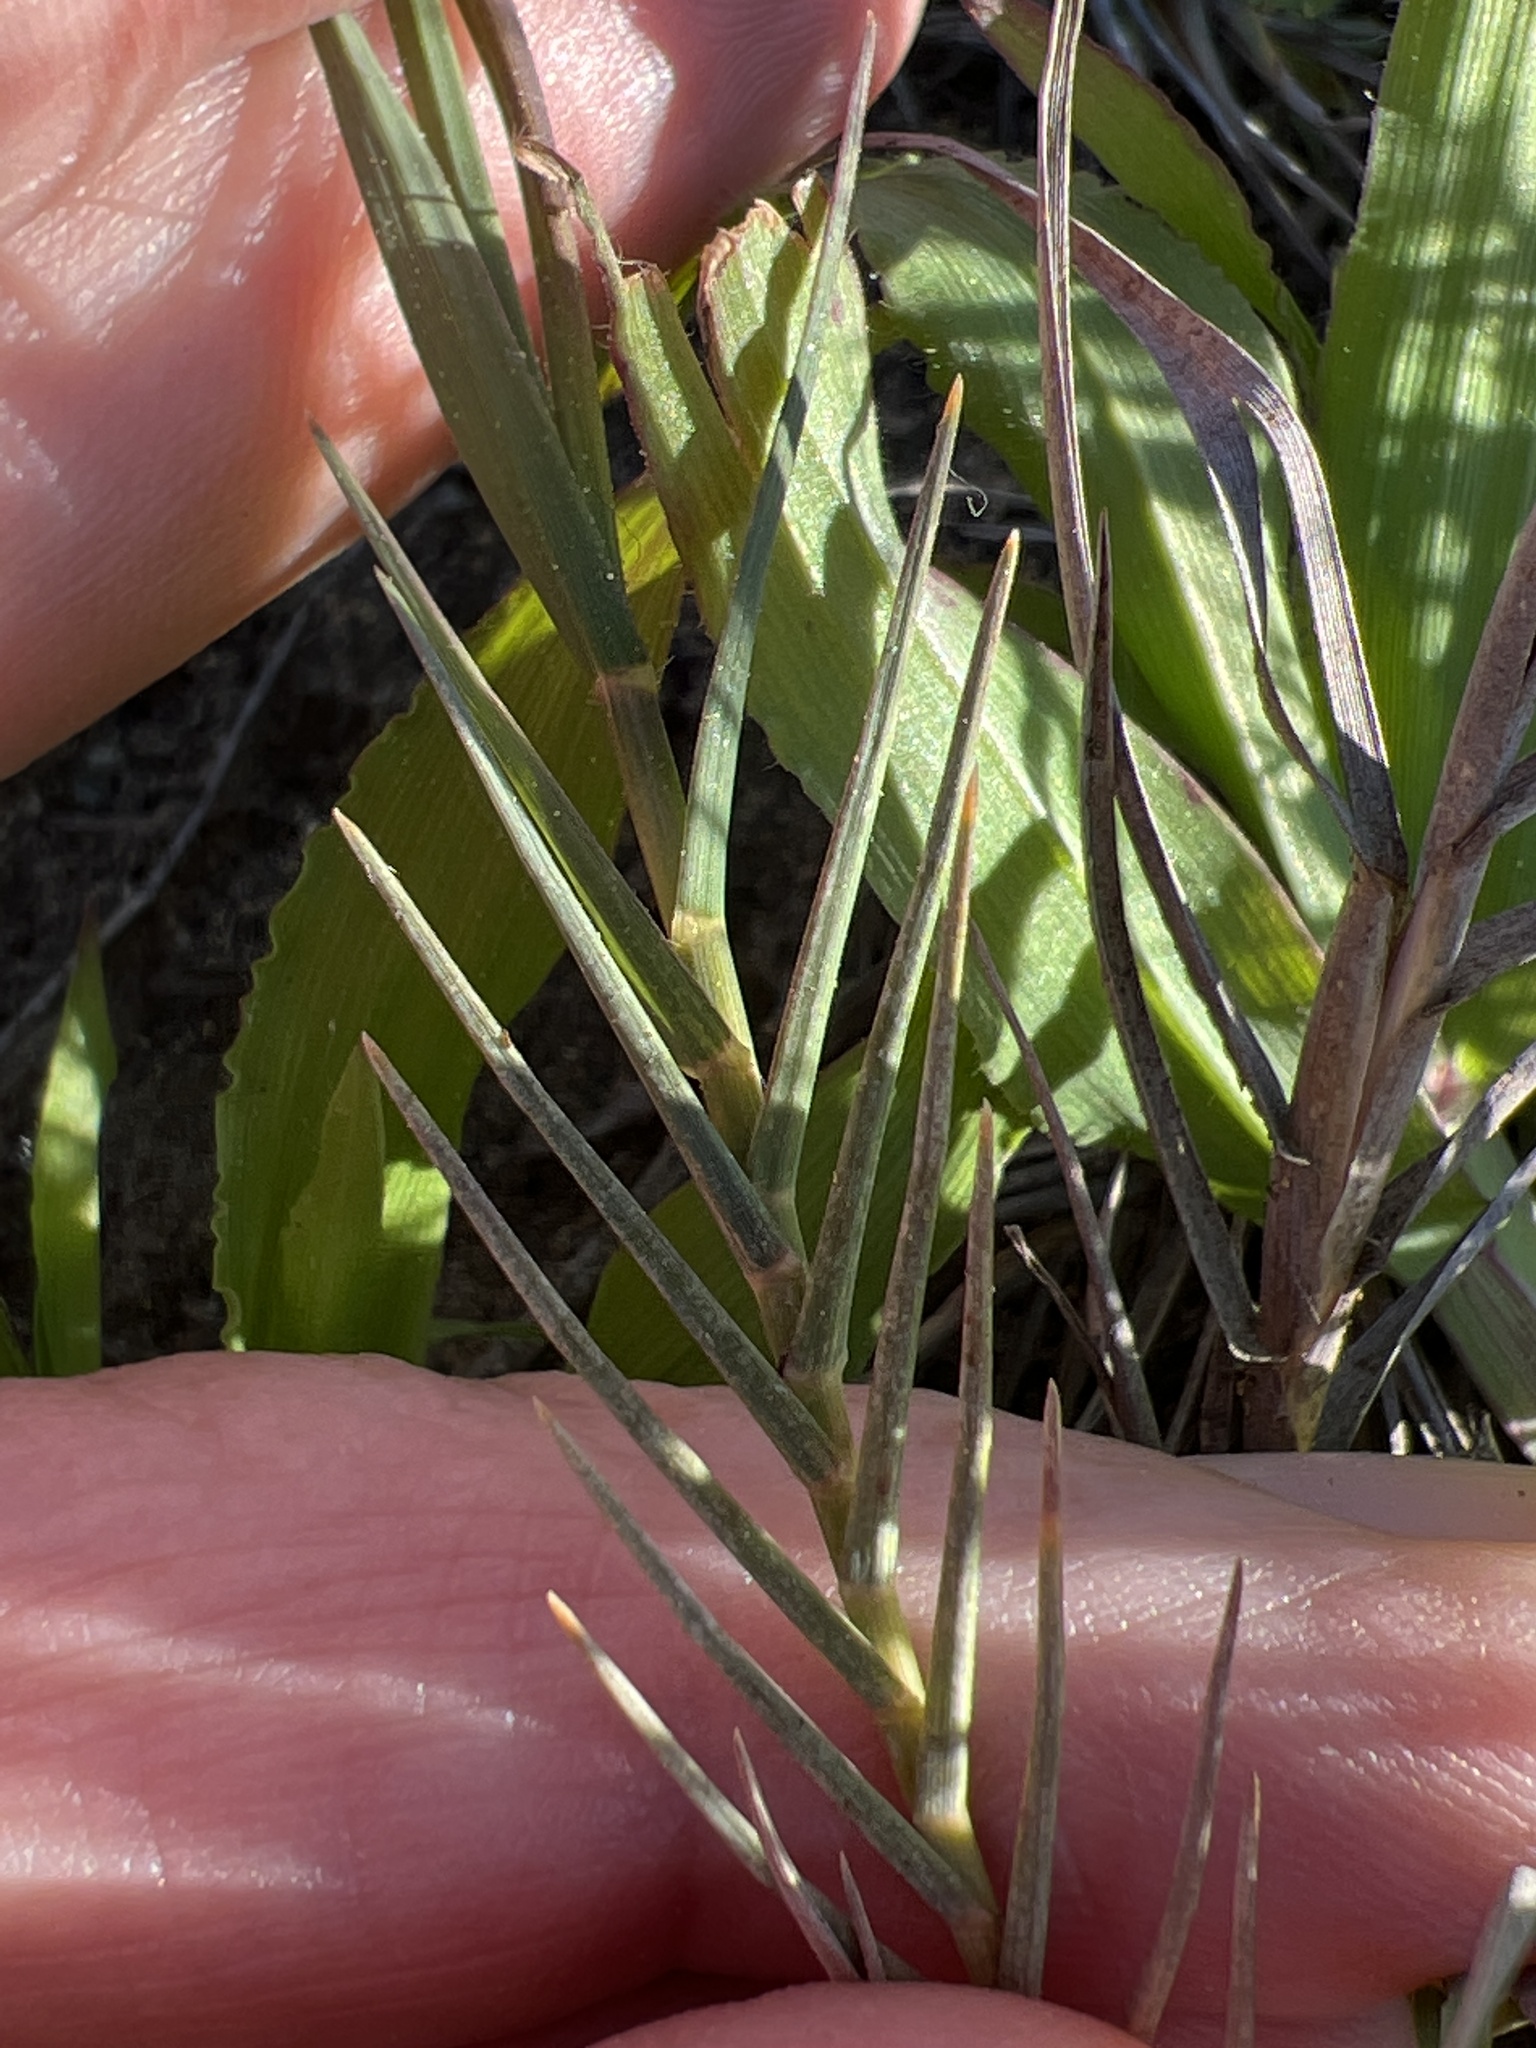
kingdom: Plantae
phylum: Tracheophyta
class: Liliopsida
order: Poales
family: Poaceae
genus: Distichlis
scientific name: Distichlis spicata
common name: Saltgrass
